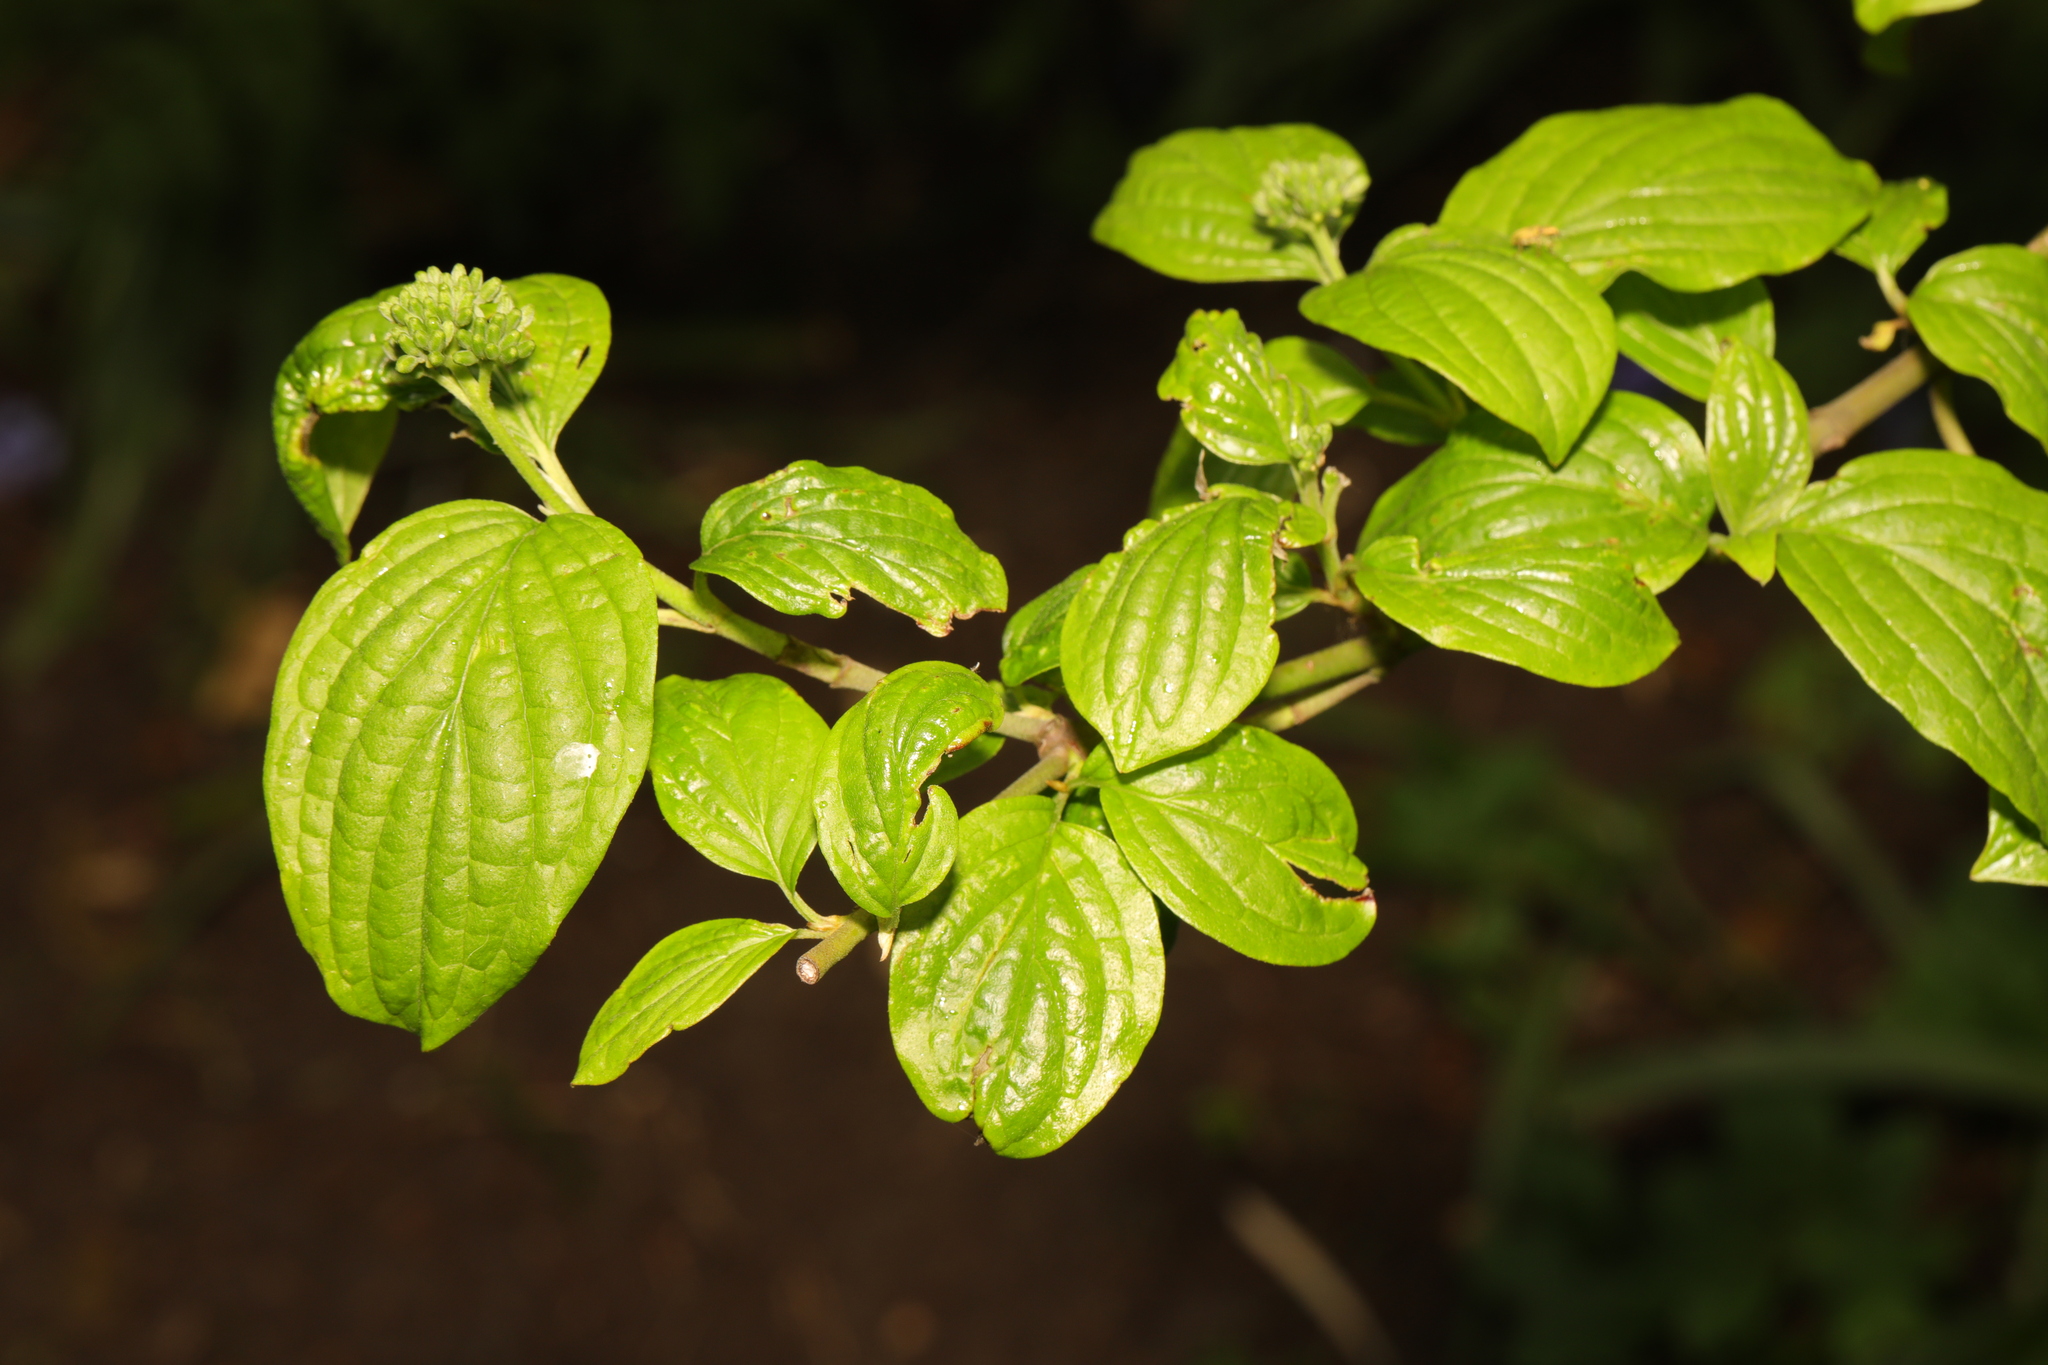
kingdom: Plantae
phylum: Tracheophyta
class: Magnoliopsida
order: Cornales
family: Cornaceae
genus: Cornus
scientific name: Cornus sanguinea
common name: Dogwood
